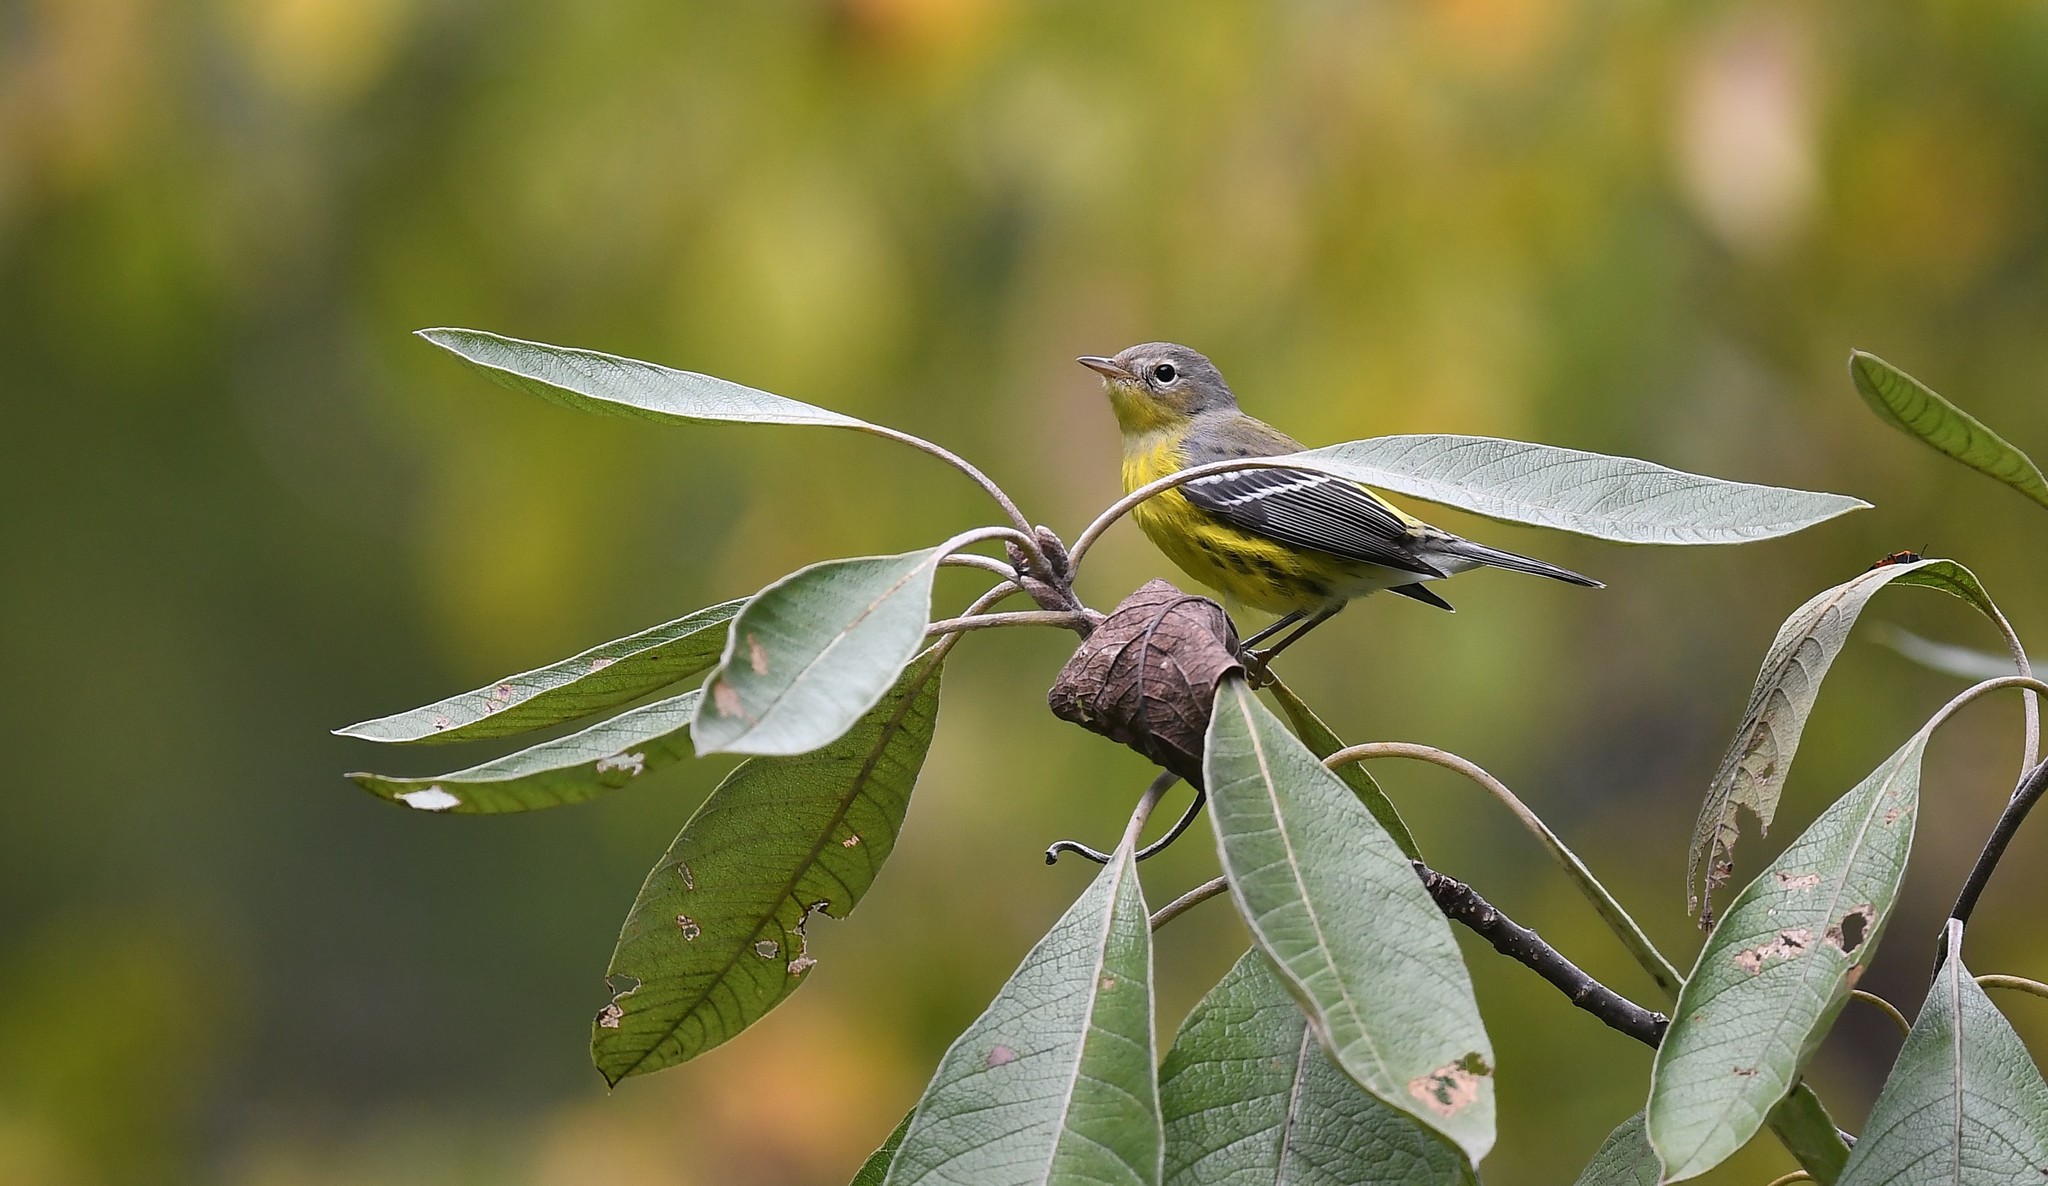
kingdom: Animalia
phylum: Chordata
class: Aves
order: Passeriformes
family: Parulidae
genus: Setophaga
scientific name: Setophaga magnolia
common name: Magnolia warbler
